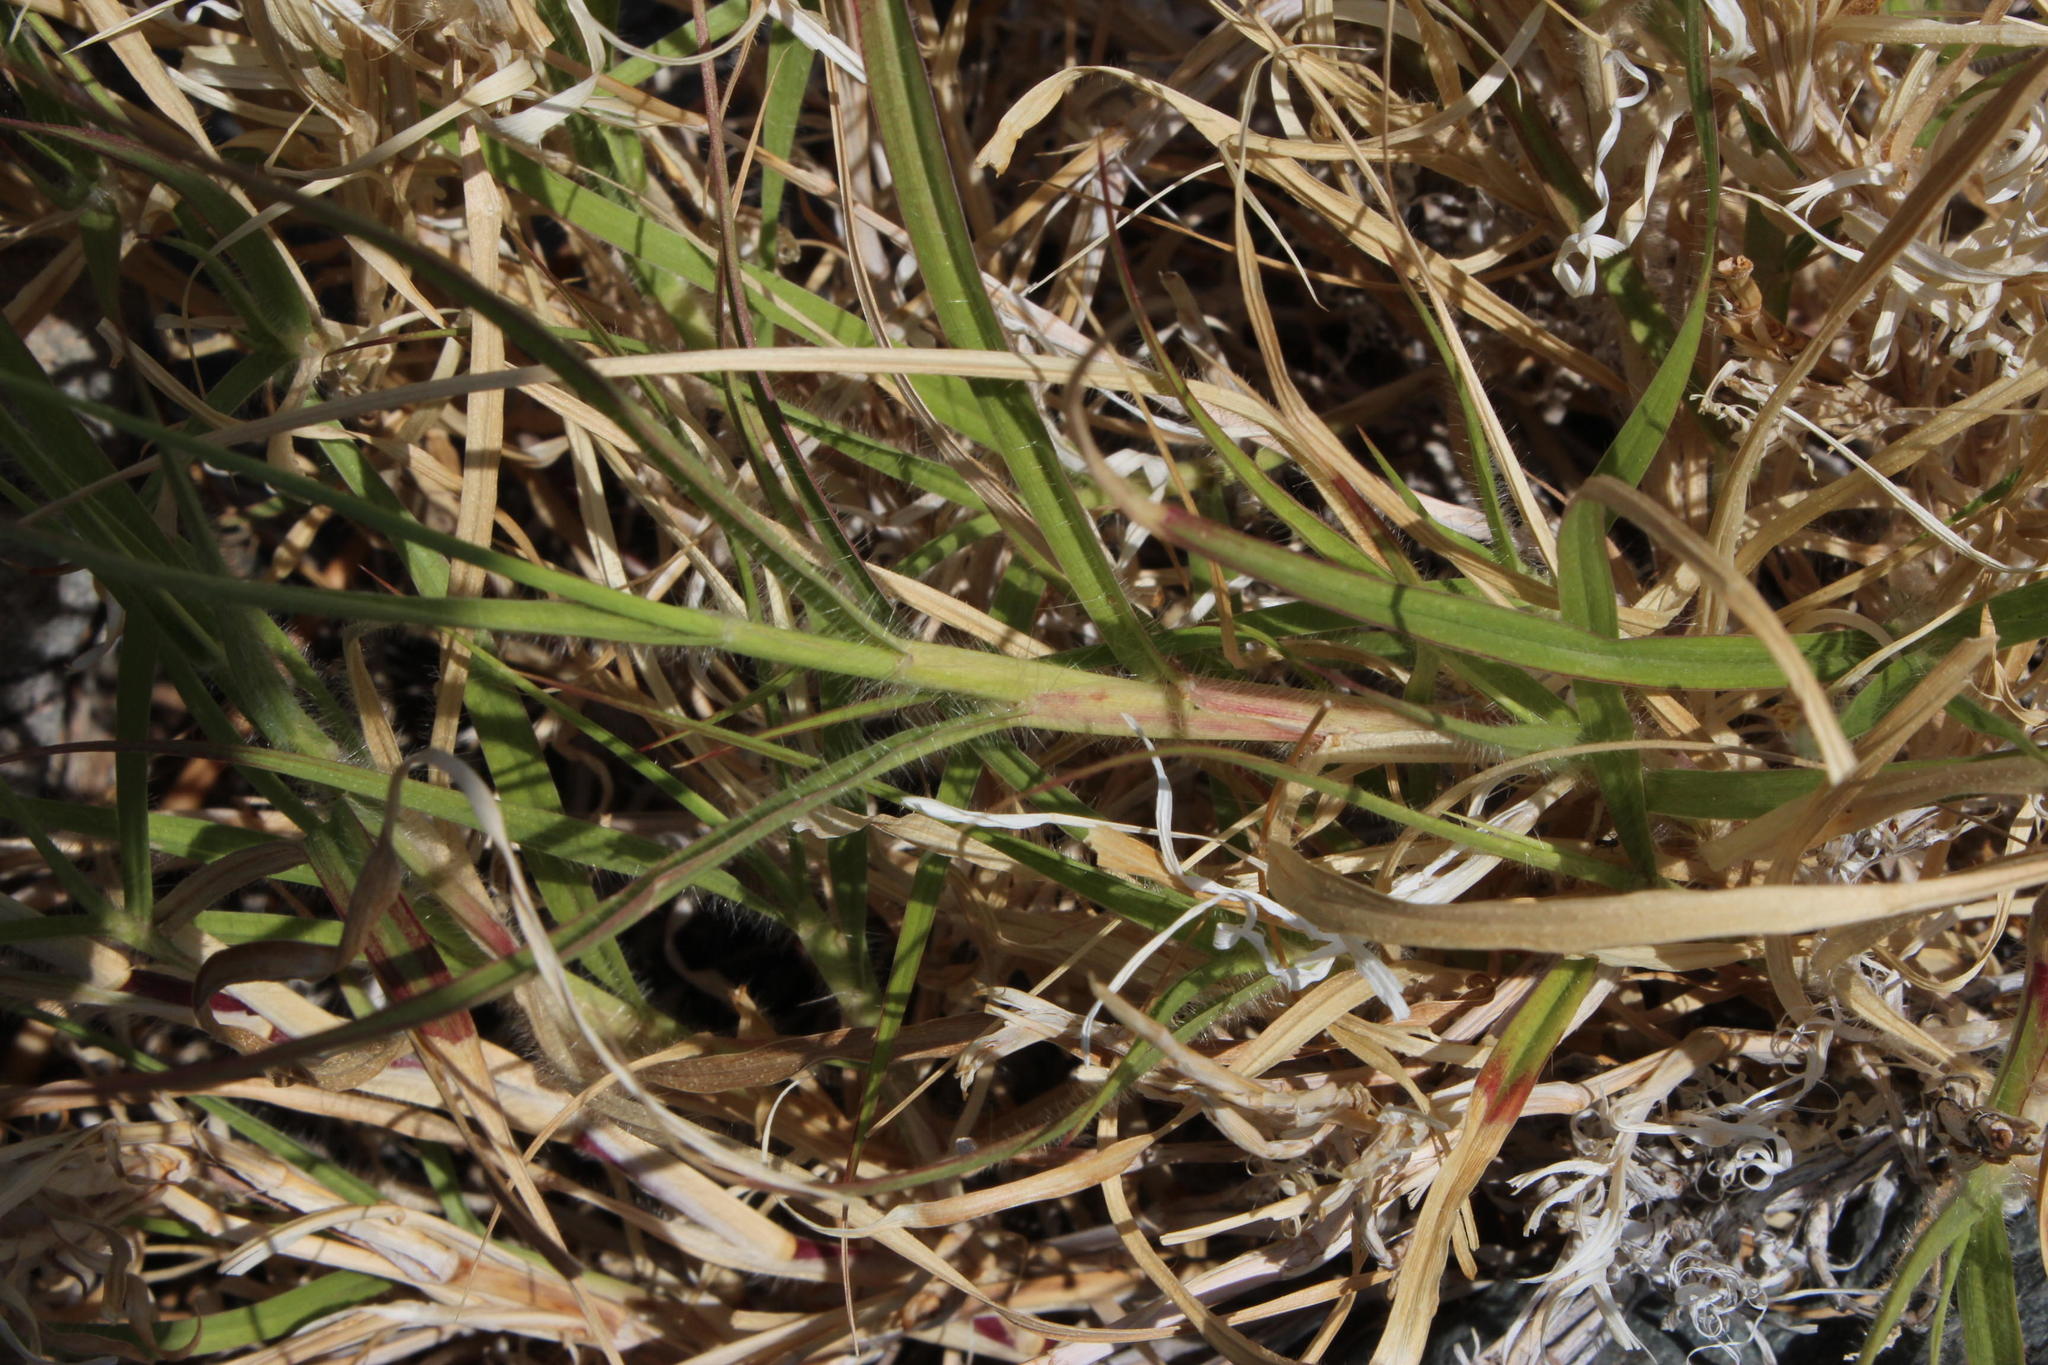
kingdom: Plantae
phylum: Tracheophyta
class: Liliopsida
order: Poales
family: Poaceae
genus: Cenchrus
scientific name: Cenchrus ciliaris
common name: Buffelgrass
